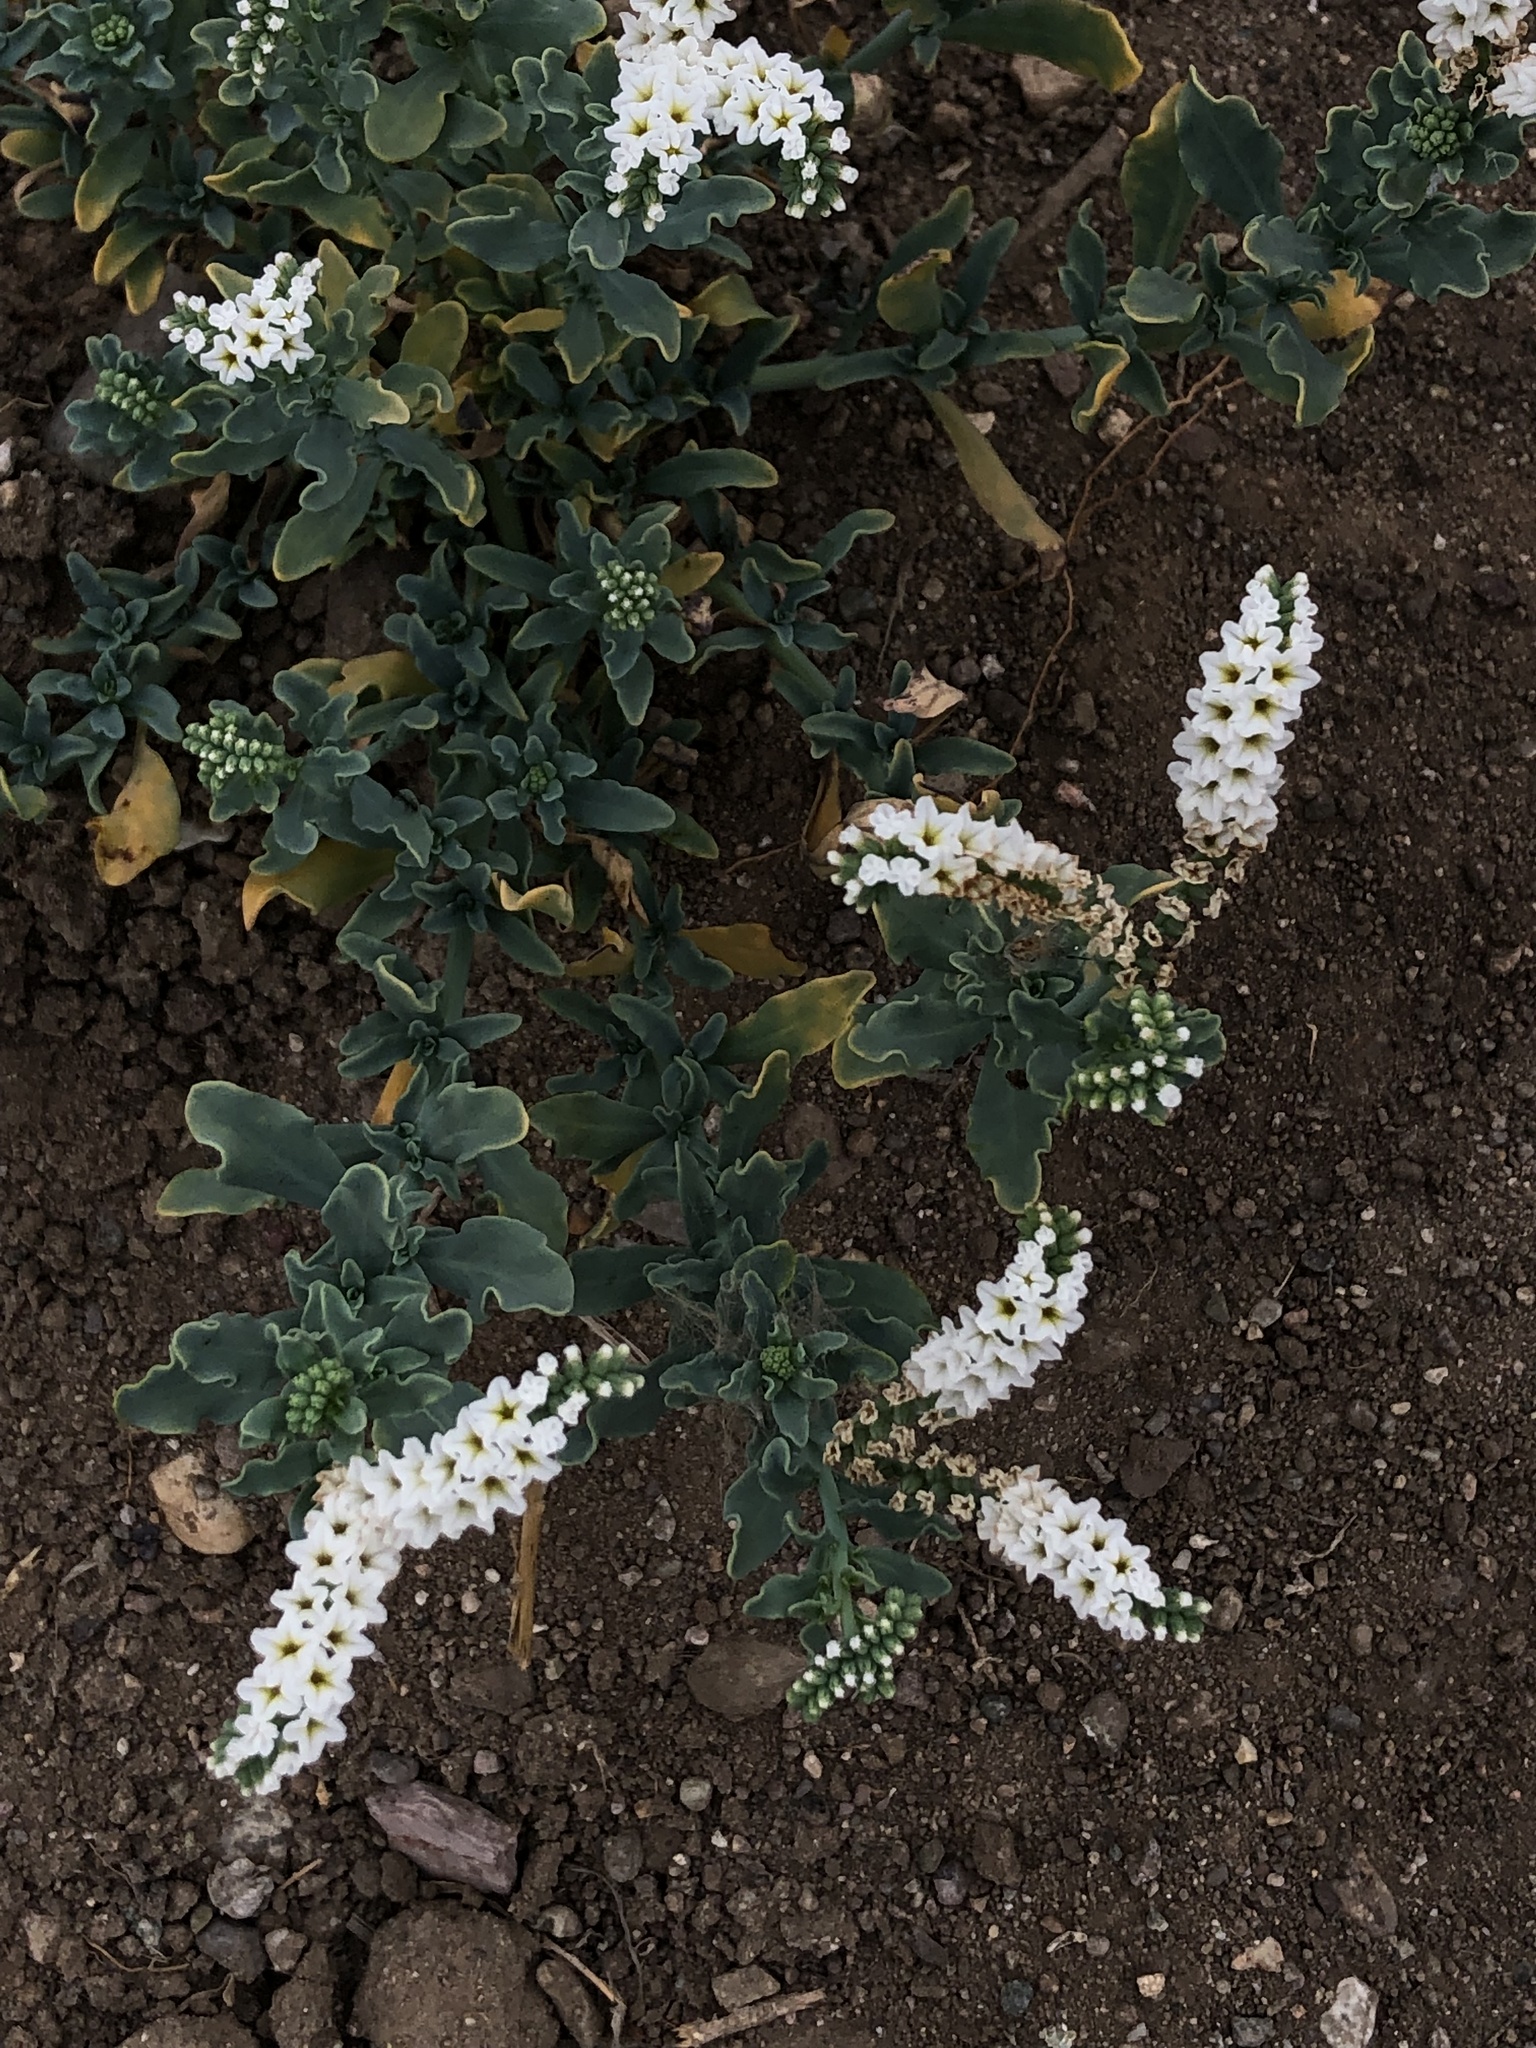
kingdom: Plantae
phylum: Tracheophyta
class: Magnoliopsida
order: Boraginales
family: Heliotropiaceae
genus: Heliotropium
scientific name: Heliotropium curassavicum
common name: Seaside heliotrope
